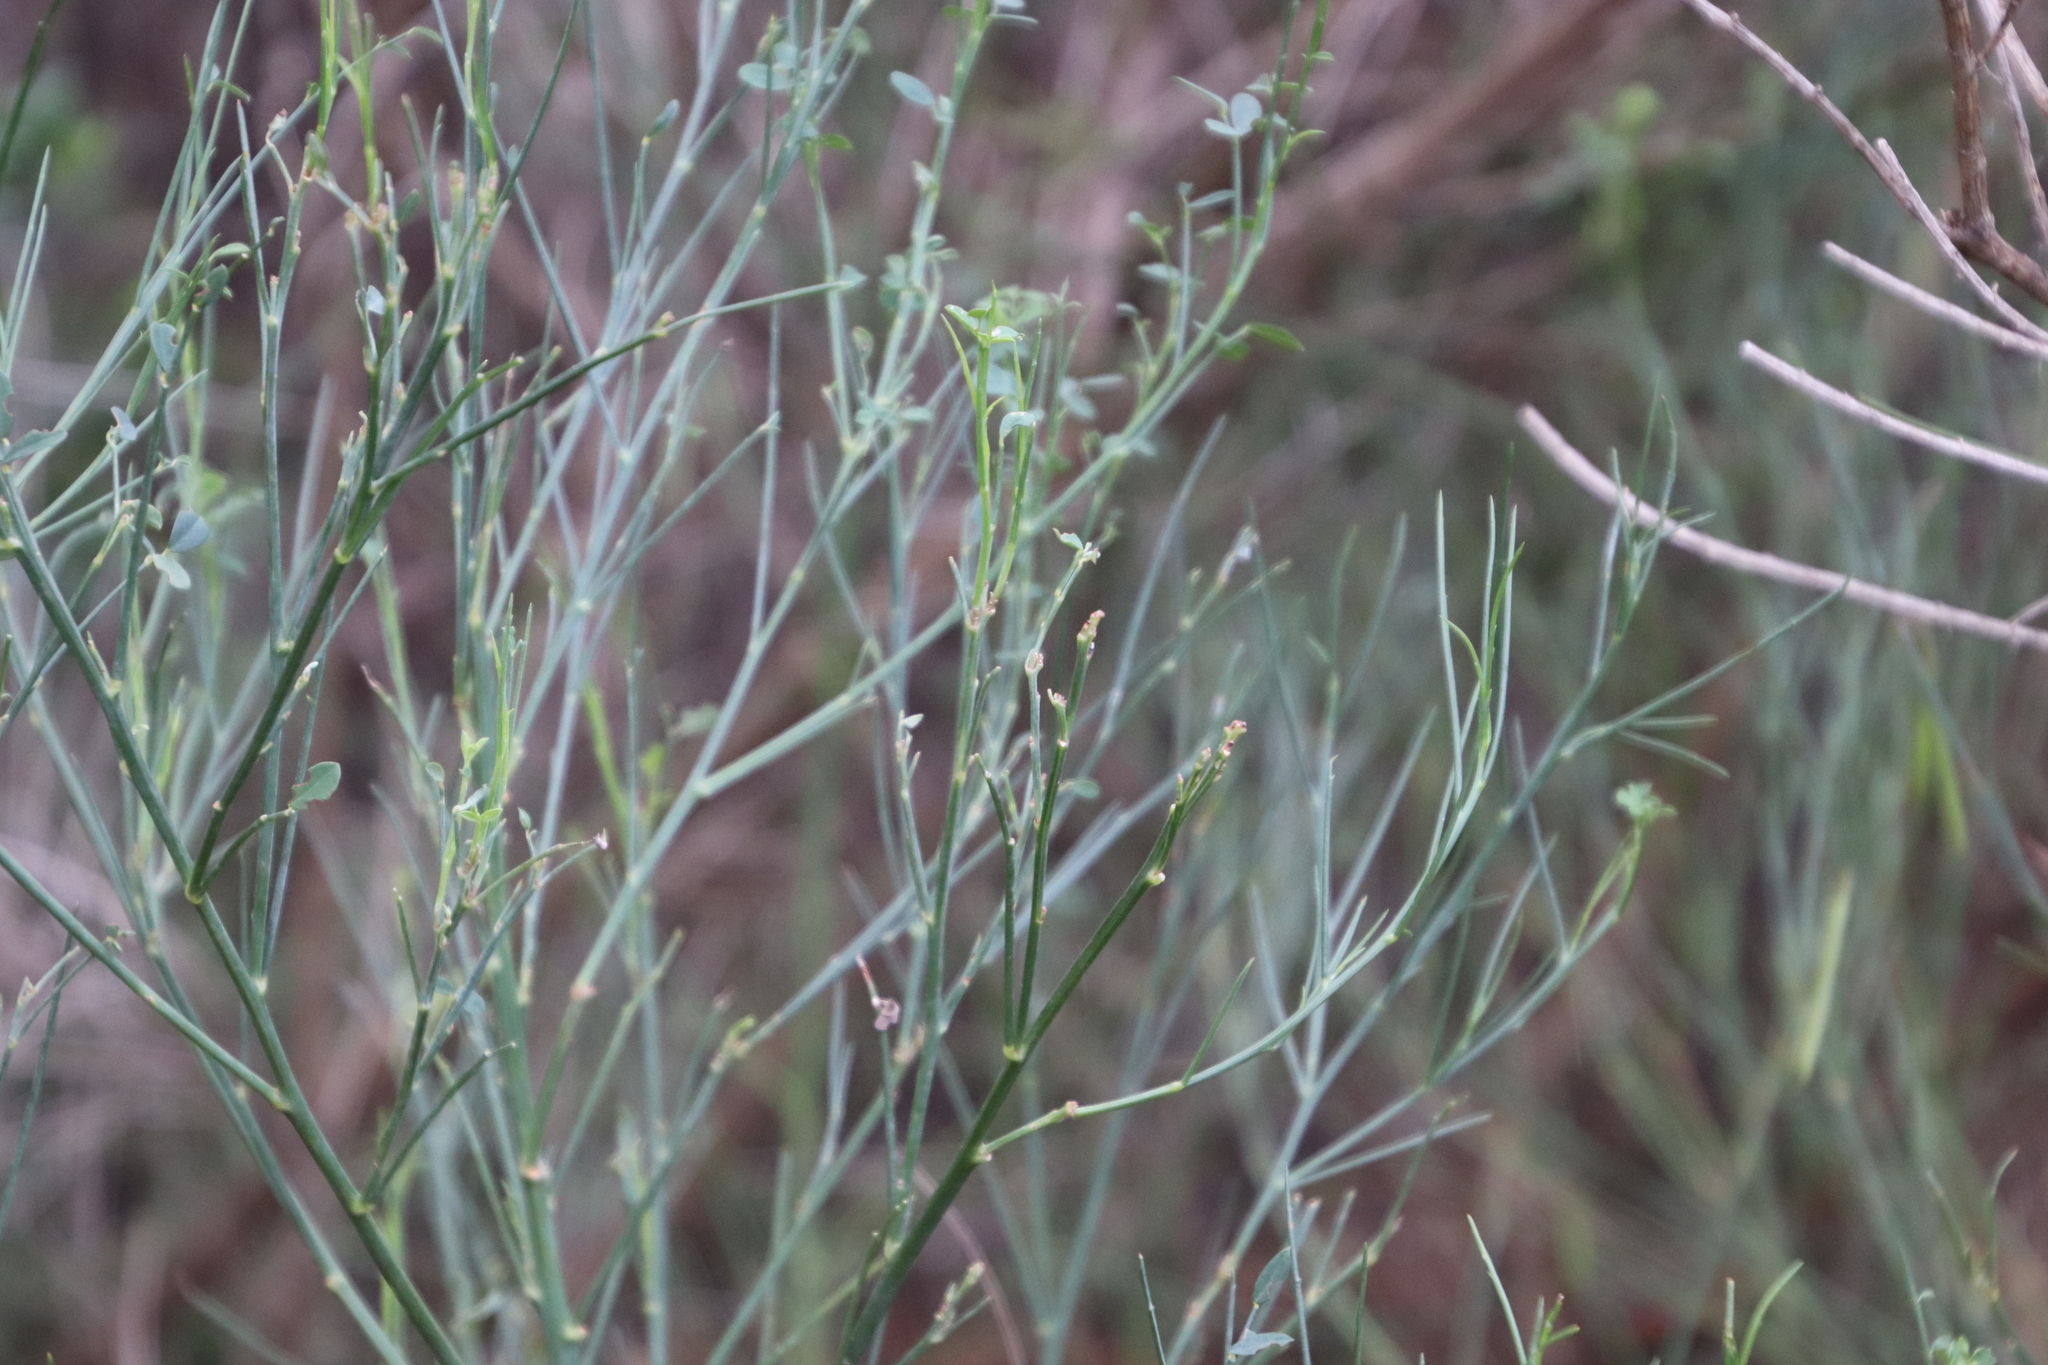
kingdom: Plantae
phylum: Tracheophyta
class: Magnoliopsida
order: Fabales
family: Fabaceae
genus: Indigofera
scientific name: Indigofera filifolia
